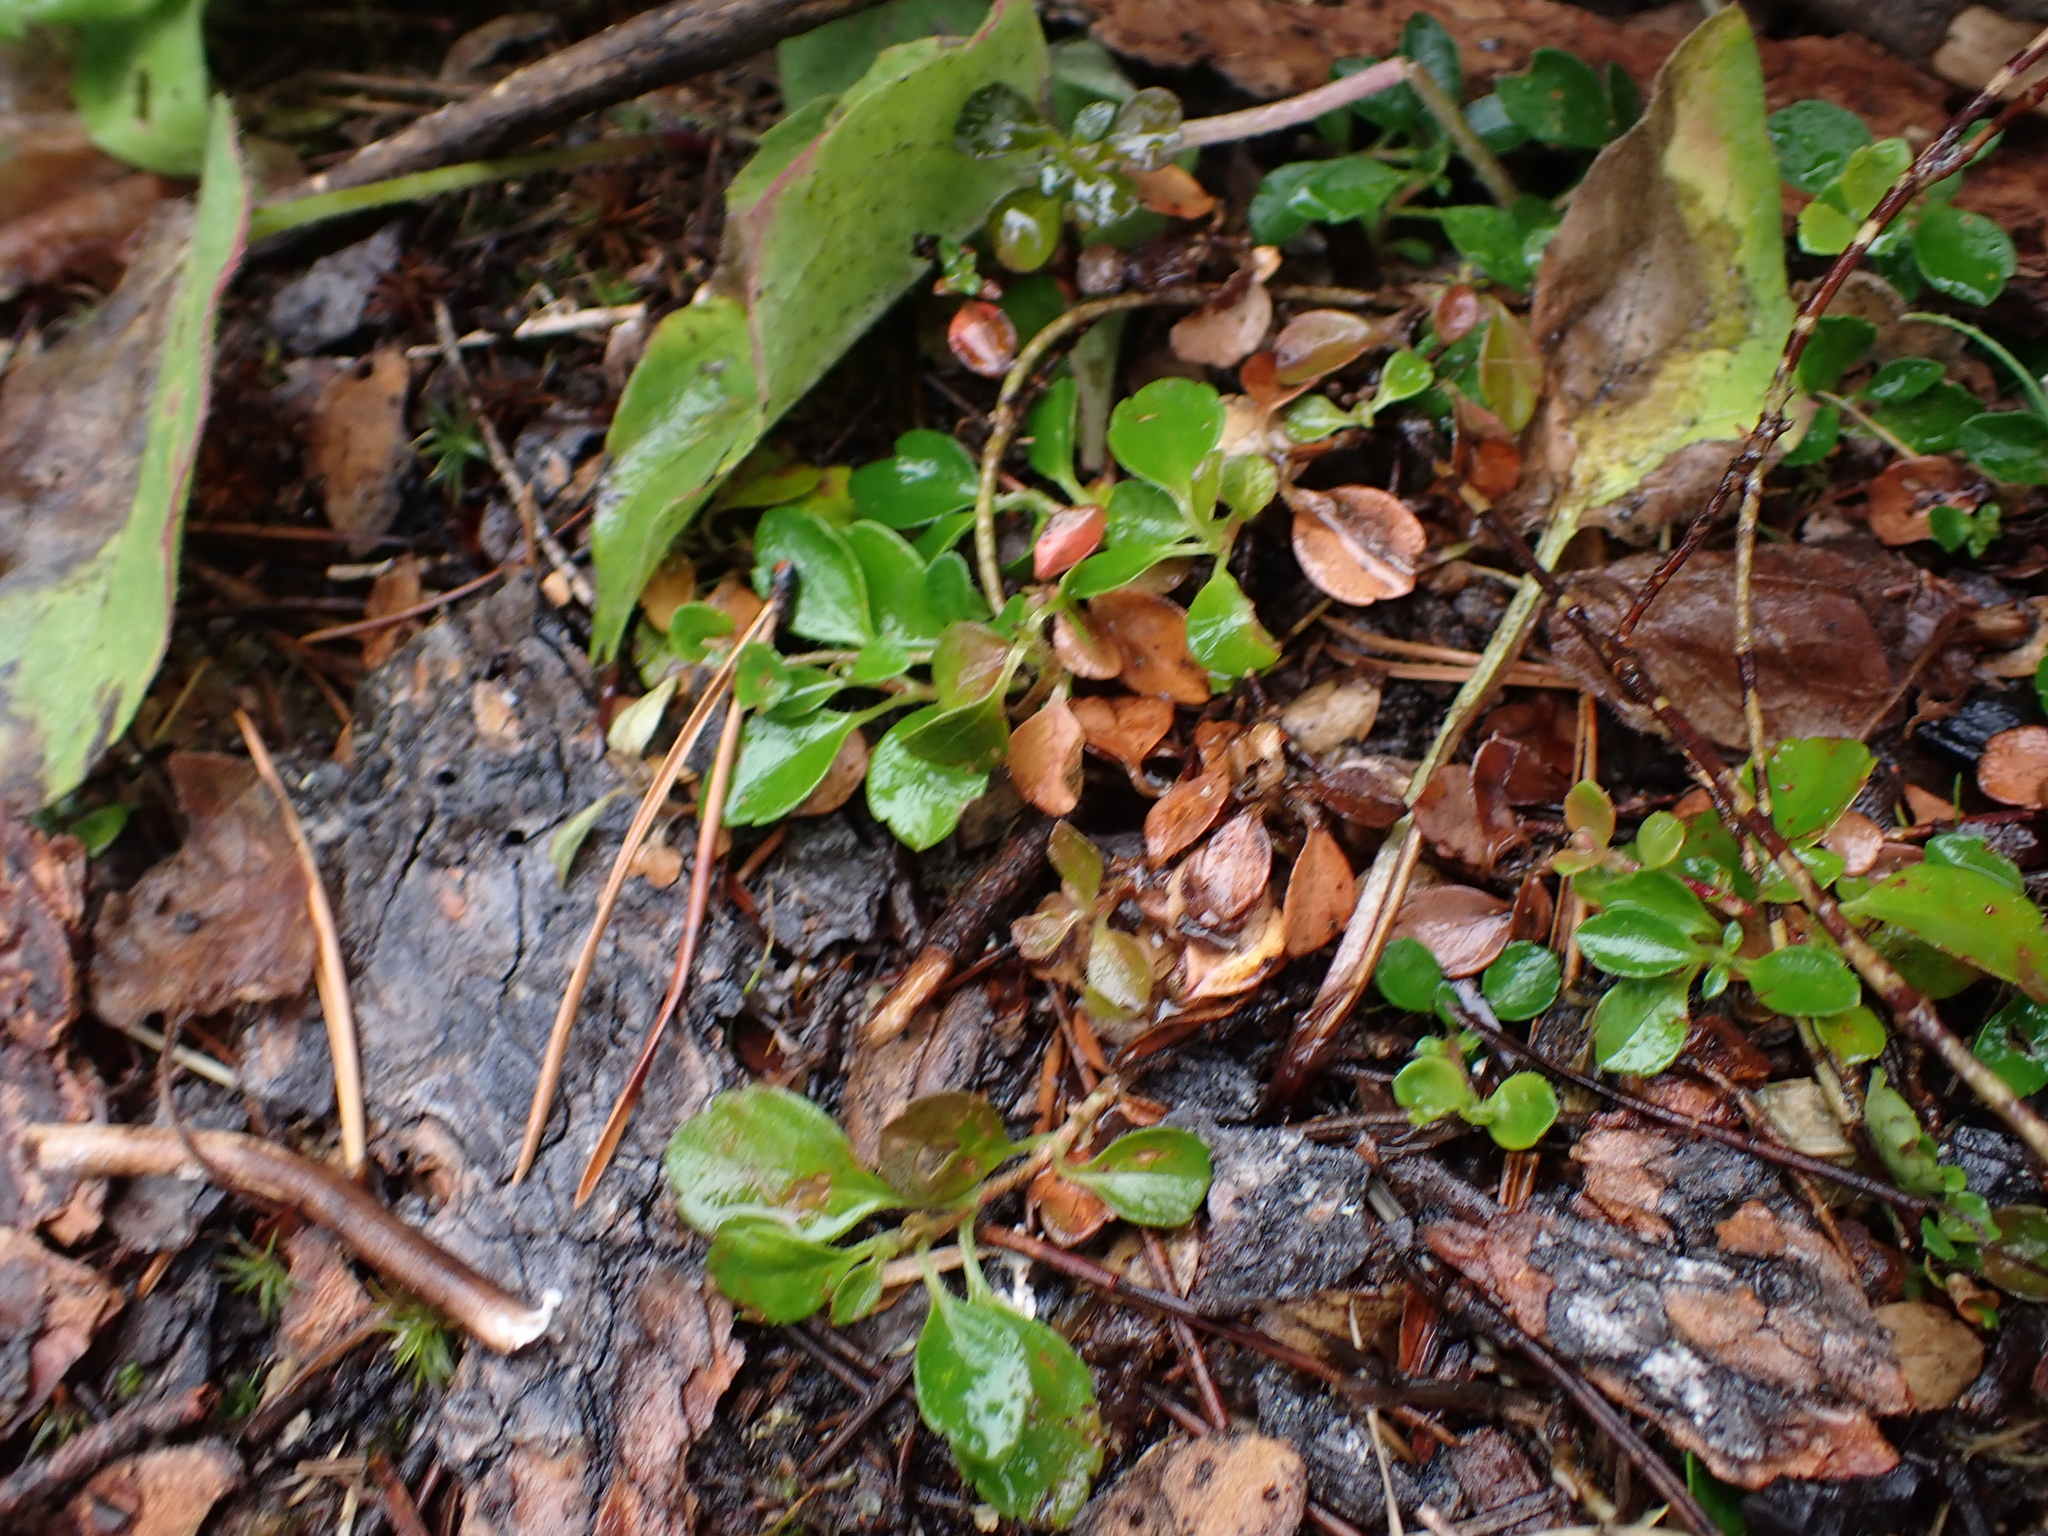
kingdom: Plantae
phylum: Tracheophyta
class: Magnoliopsida
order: Dipsacales
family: Caprifoliaceae
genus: Linnaea
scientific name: Linnaea borealis
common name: Twinflower
